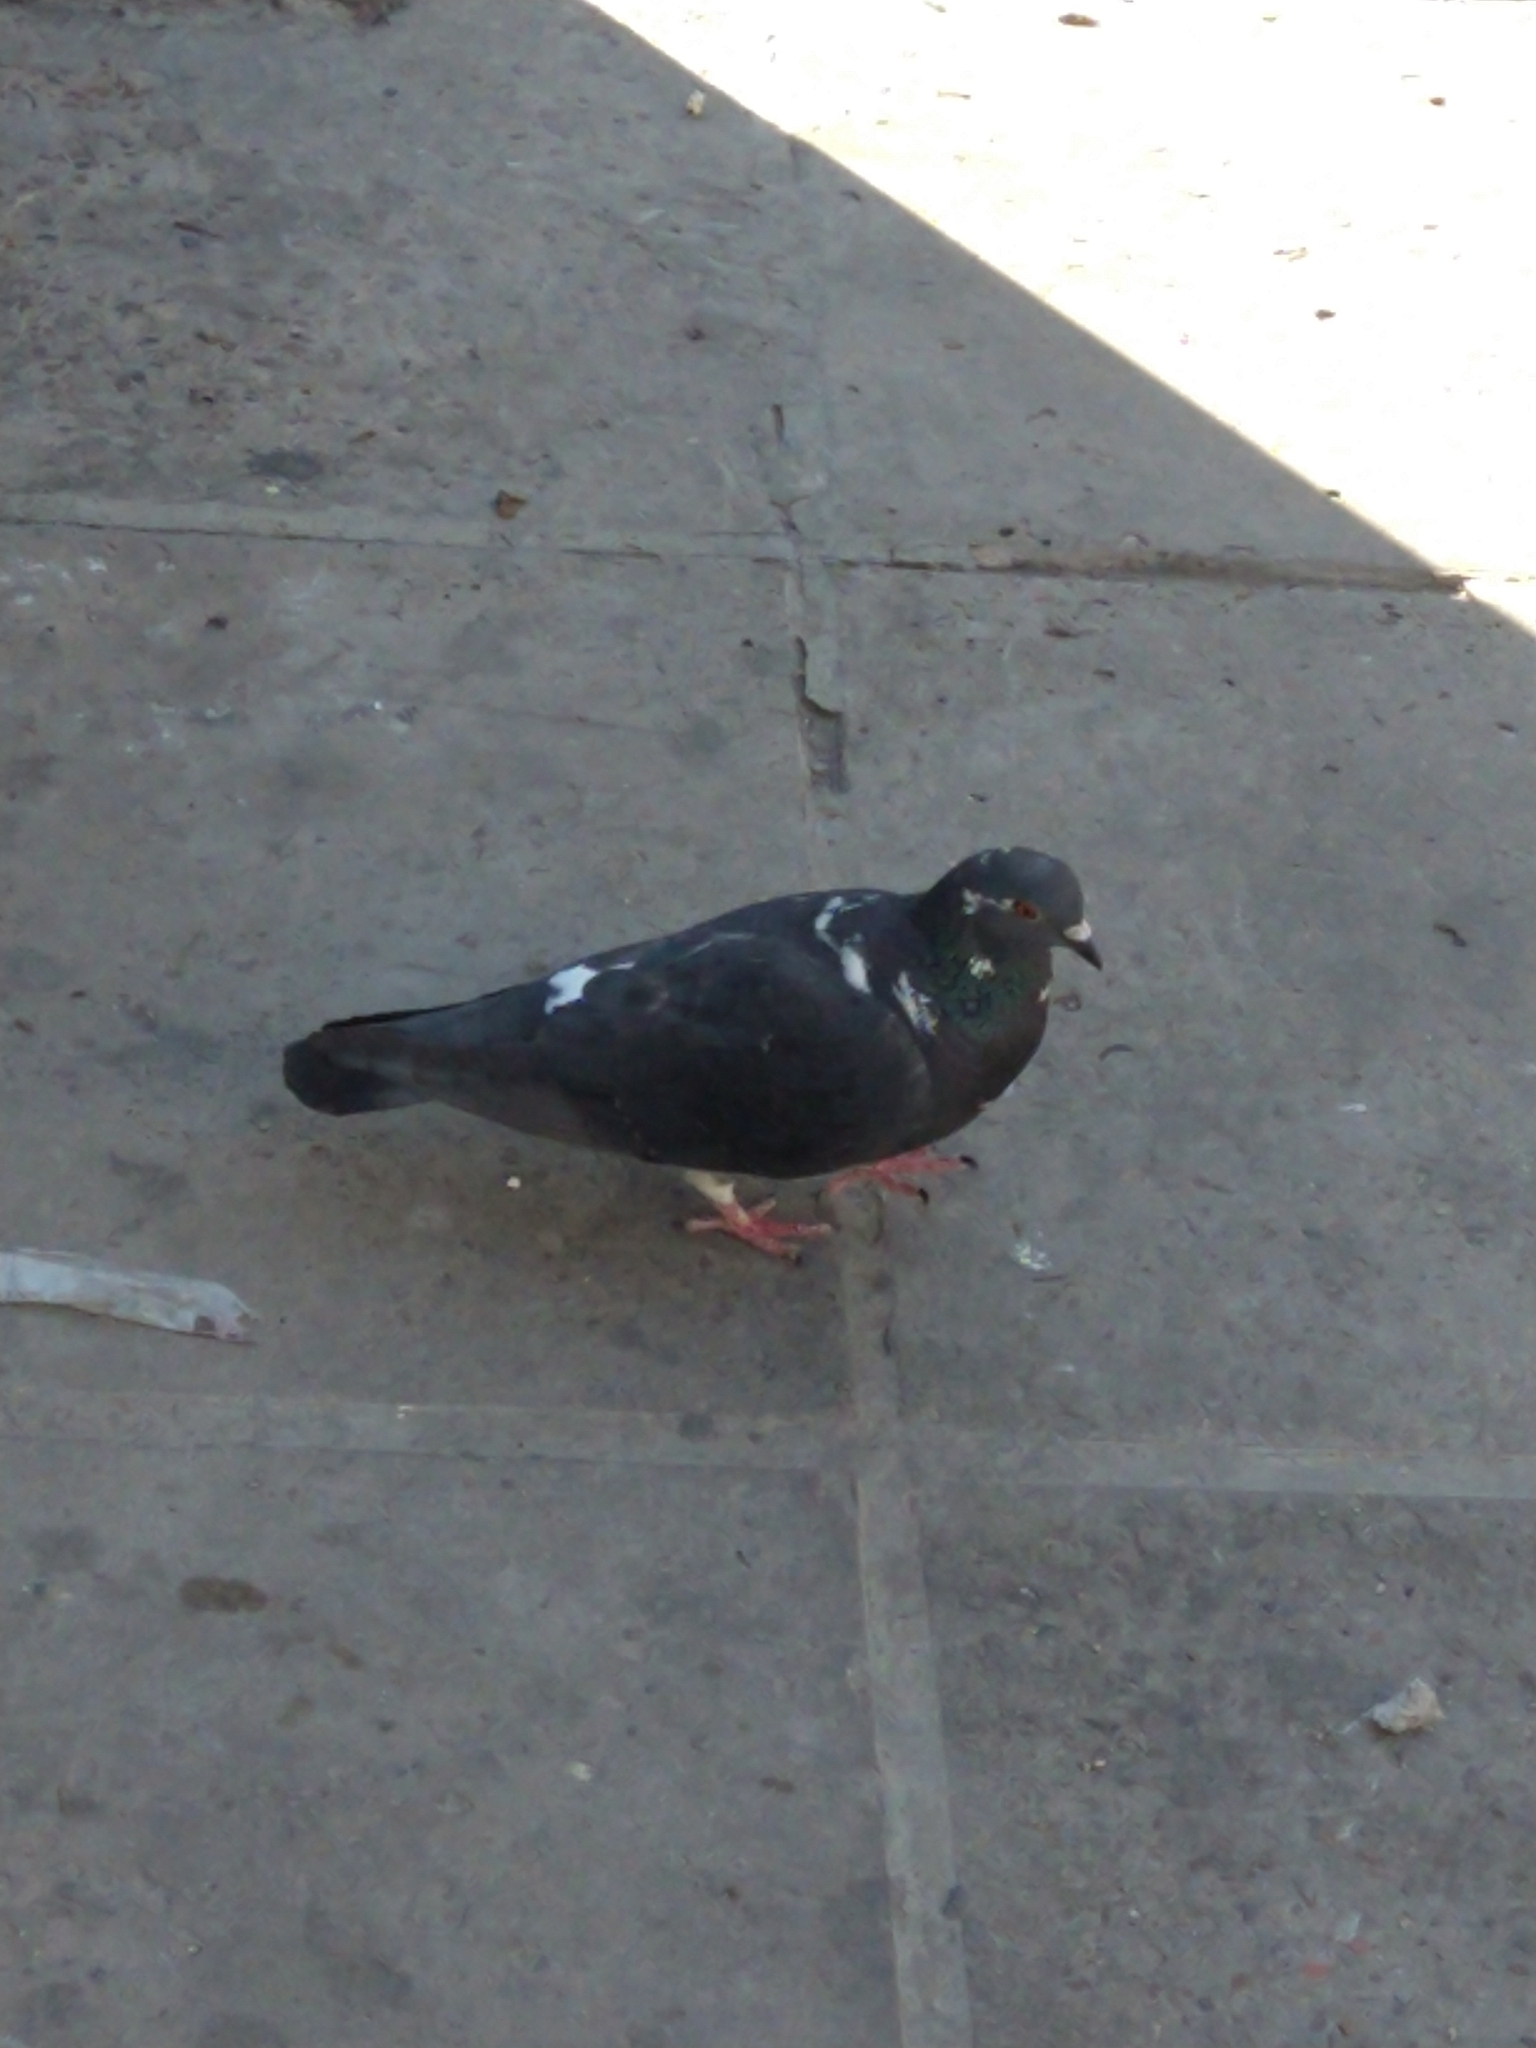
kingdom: Animalia
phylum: Chordata
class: Aves
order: Columbiformes
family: Columbidae
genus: Columba
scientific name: Columba livia
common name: Rock pigeon
